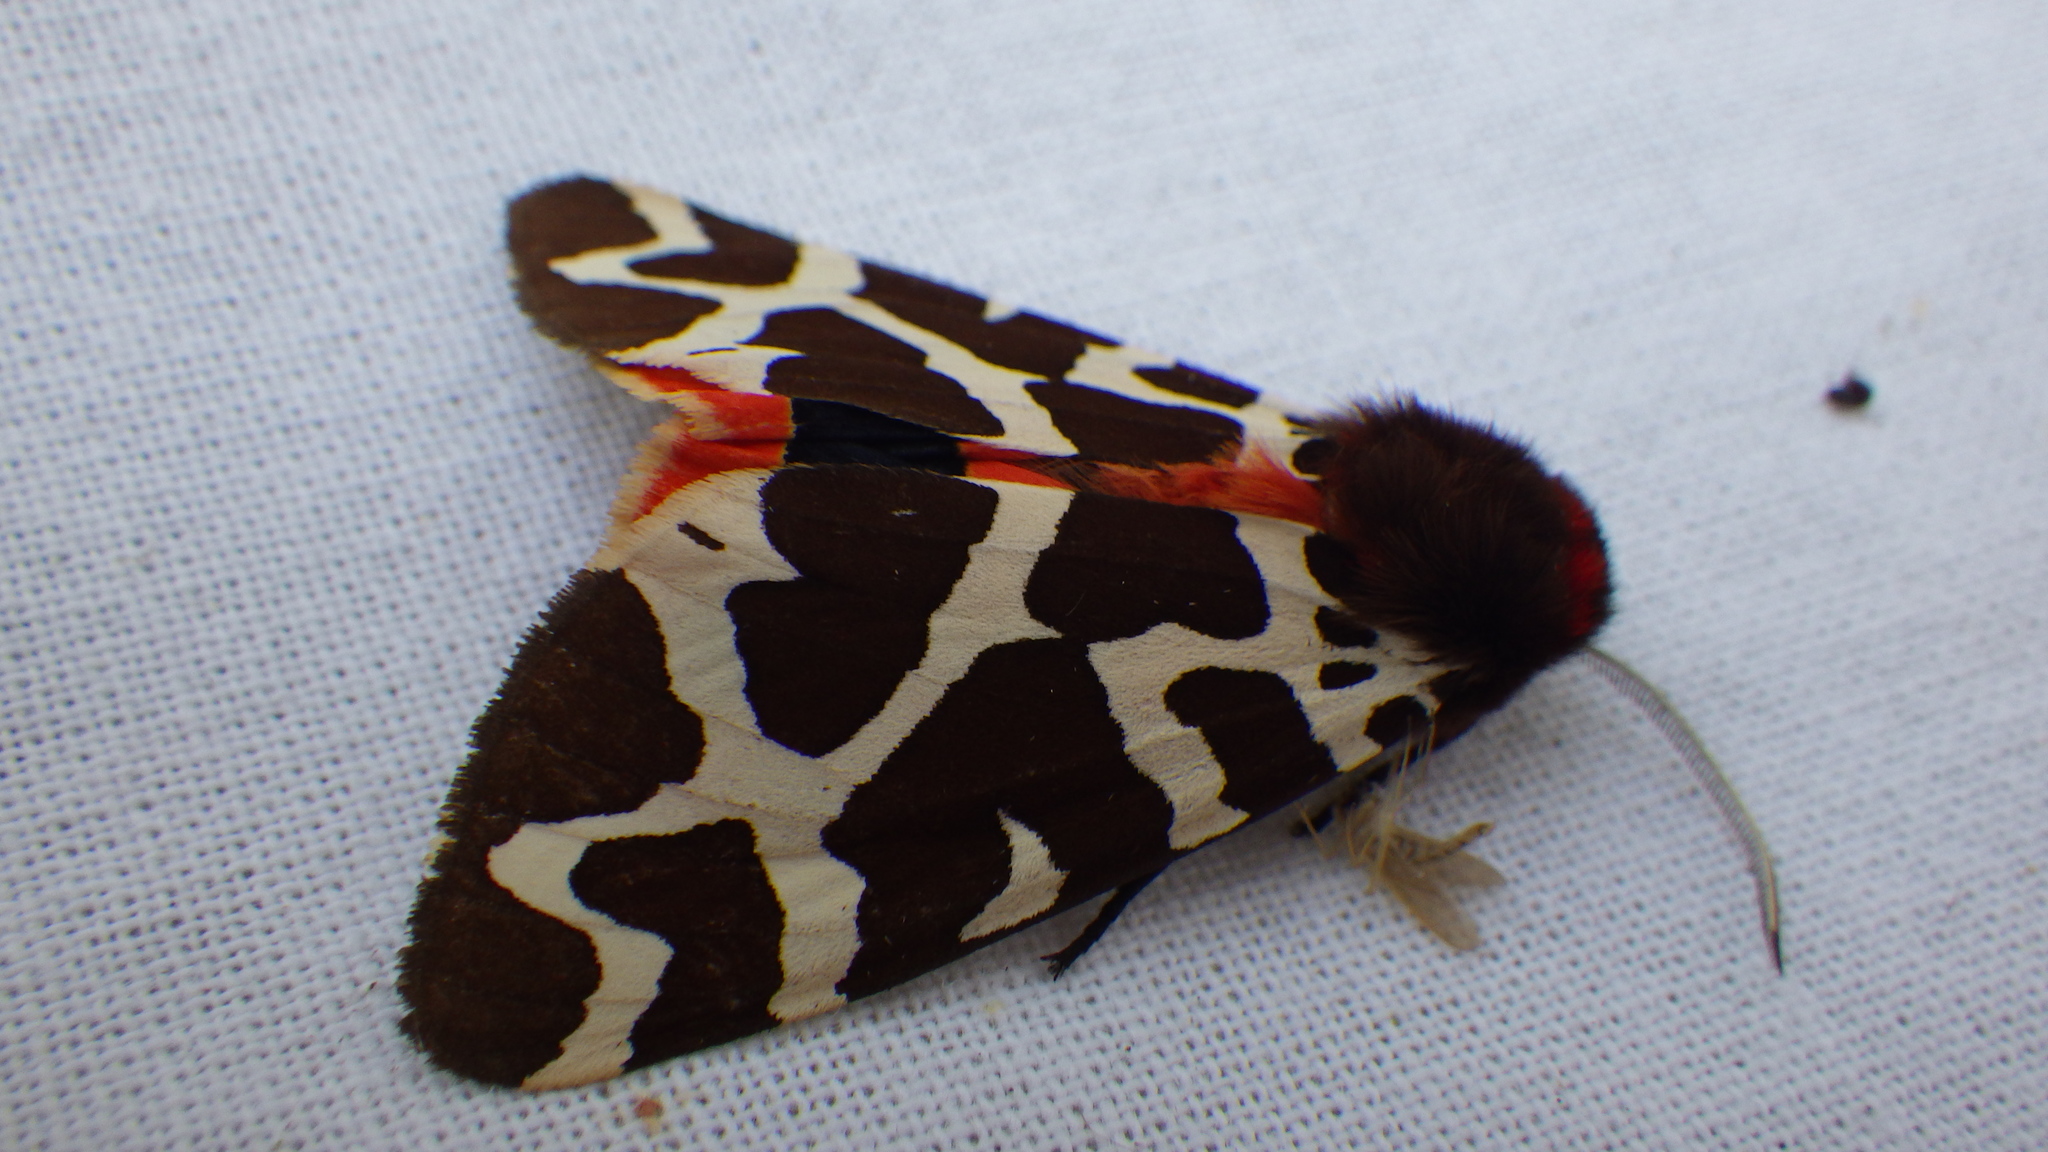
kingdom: Animalia
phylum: Arthropoda
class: Insecta
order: Lepidoptera
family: Erebidae
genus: Arctia
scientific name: Arctia caja
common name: Garden tiger
